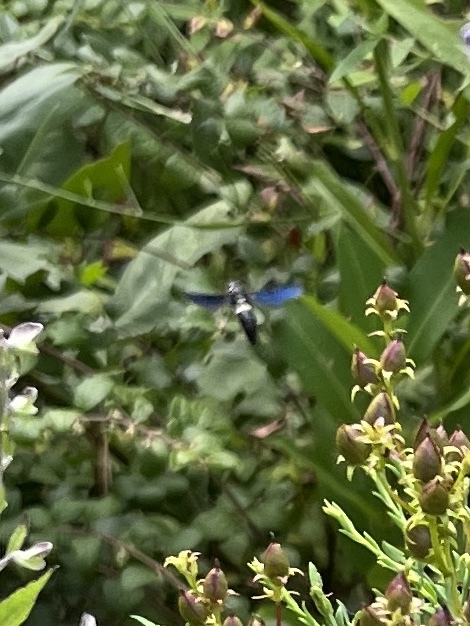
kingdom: Animalia
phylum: Arthropoda
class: Insecta
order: Hymenoptera
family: Eumenidae
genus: Monobia
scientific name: Monobia quadridens
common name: Four-toothed mason wasp
